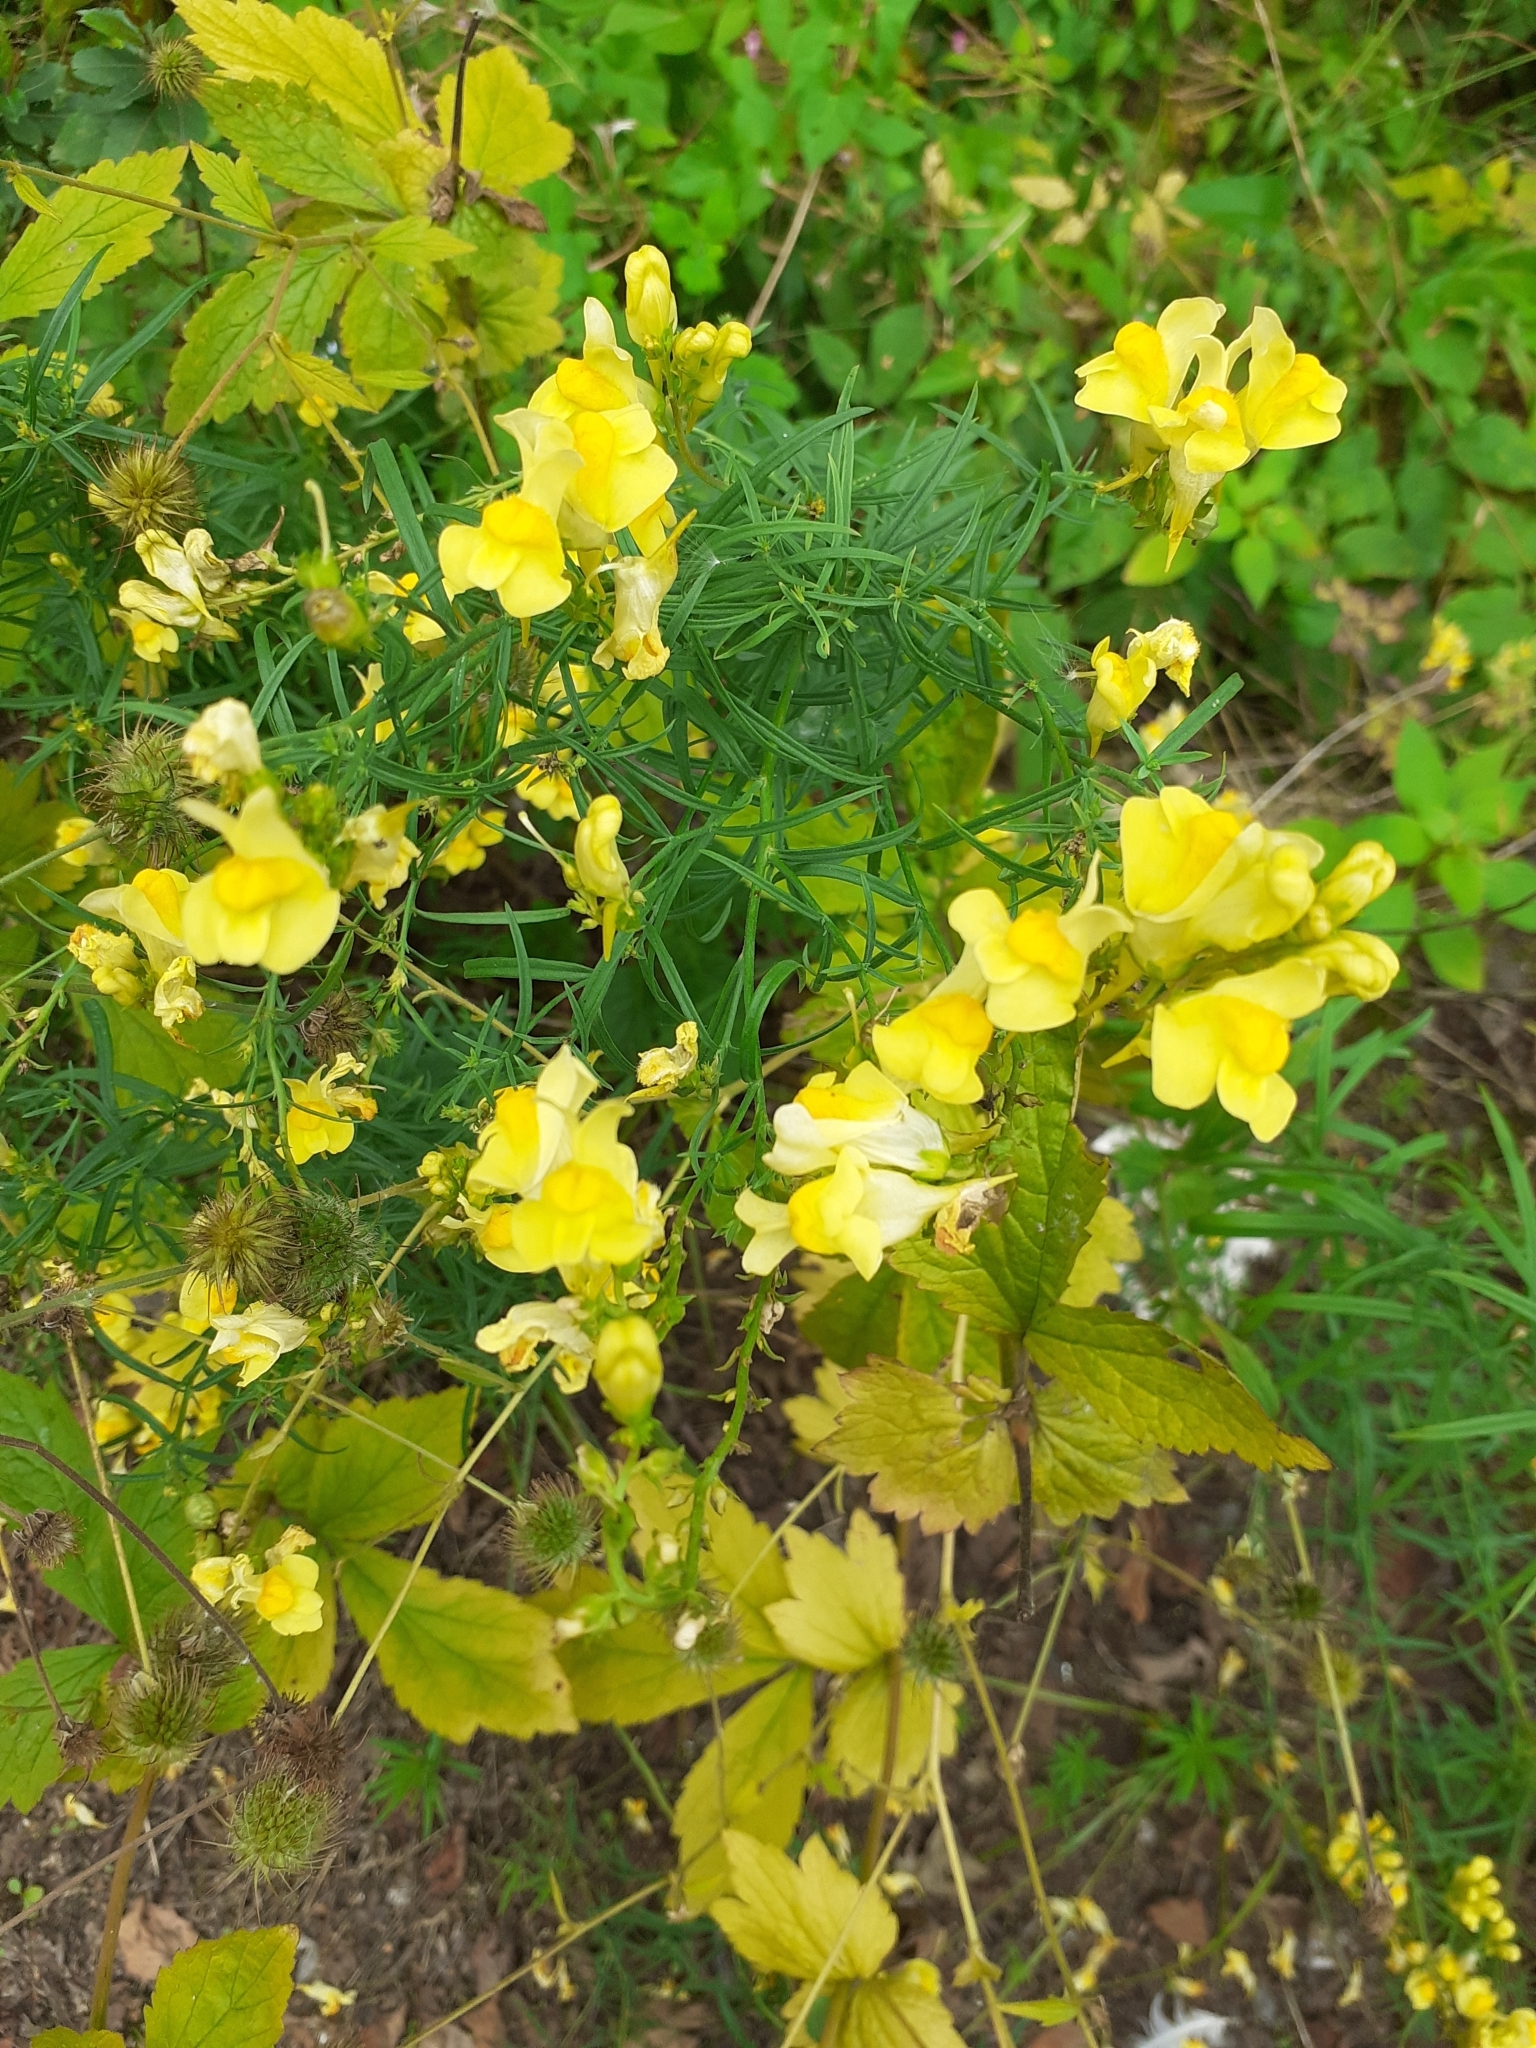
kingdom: Plantae
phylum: Tracheophyta
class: Magnoliopsida
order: Lamiales
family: Plantaginaceae
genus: Linaria
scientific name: Linaria vulgaris
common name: Butter and eggs
